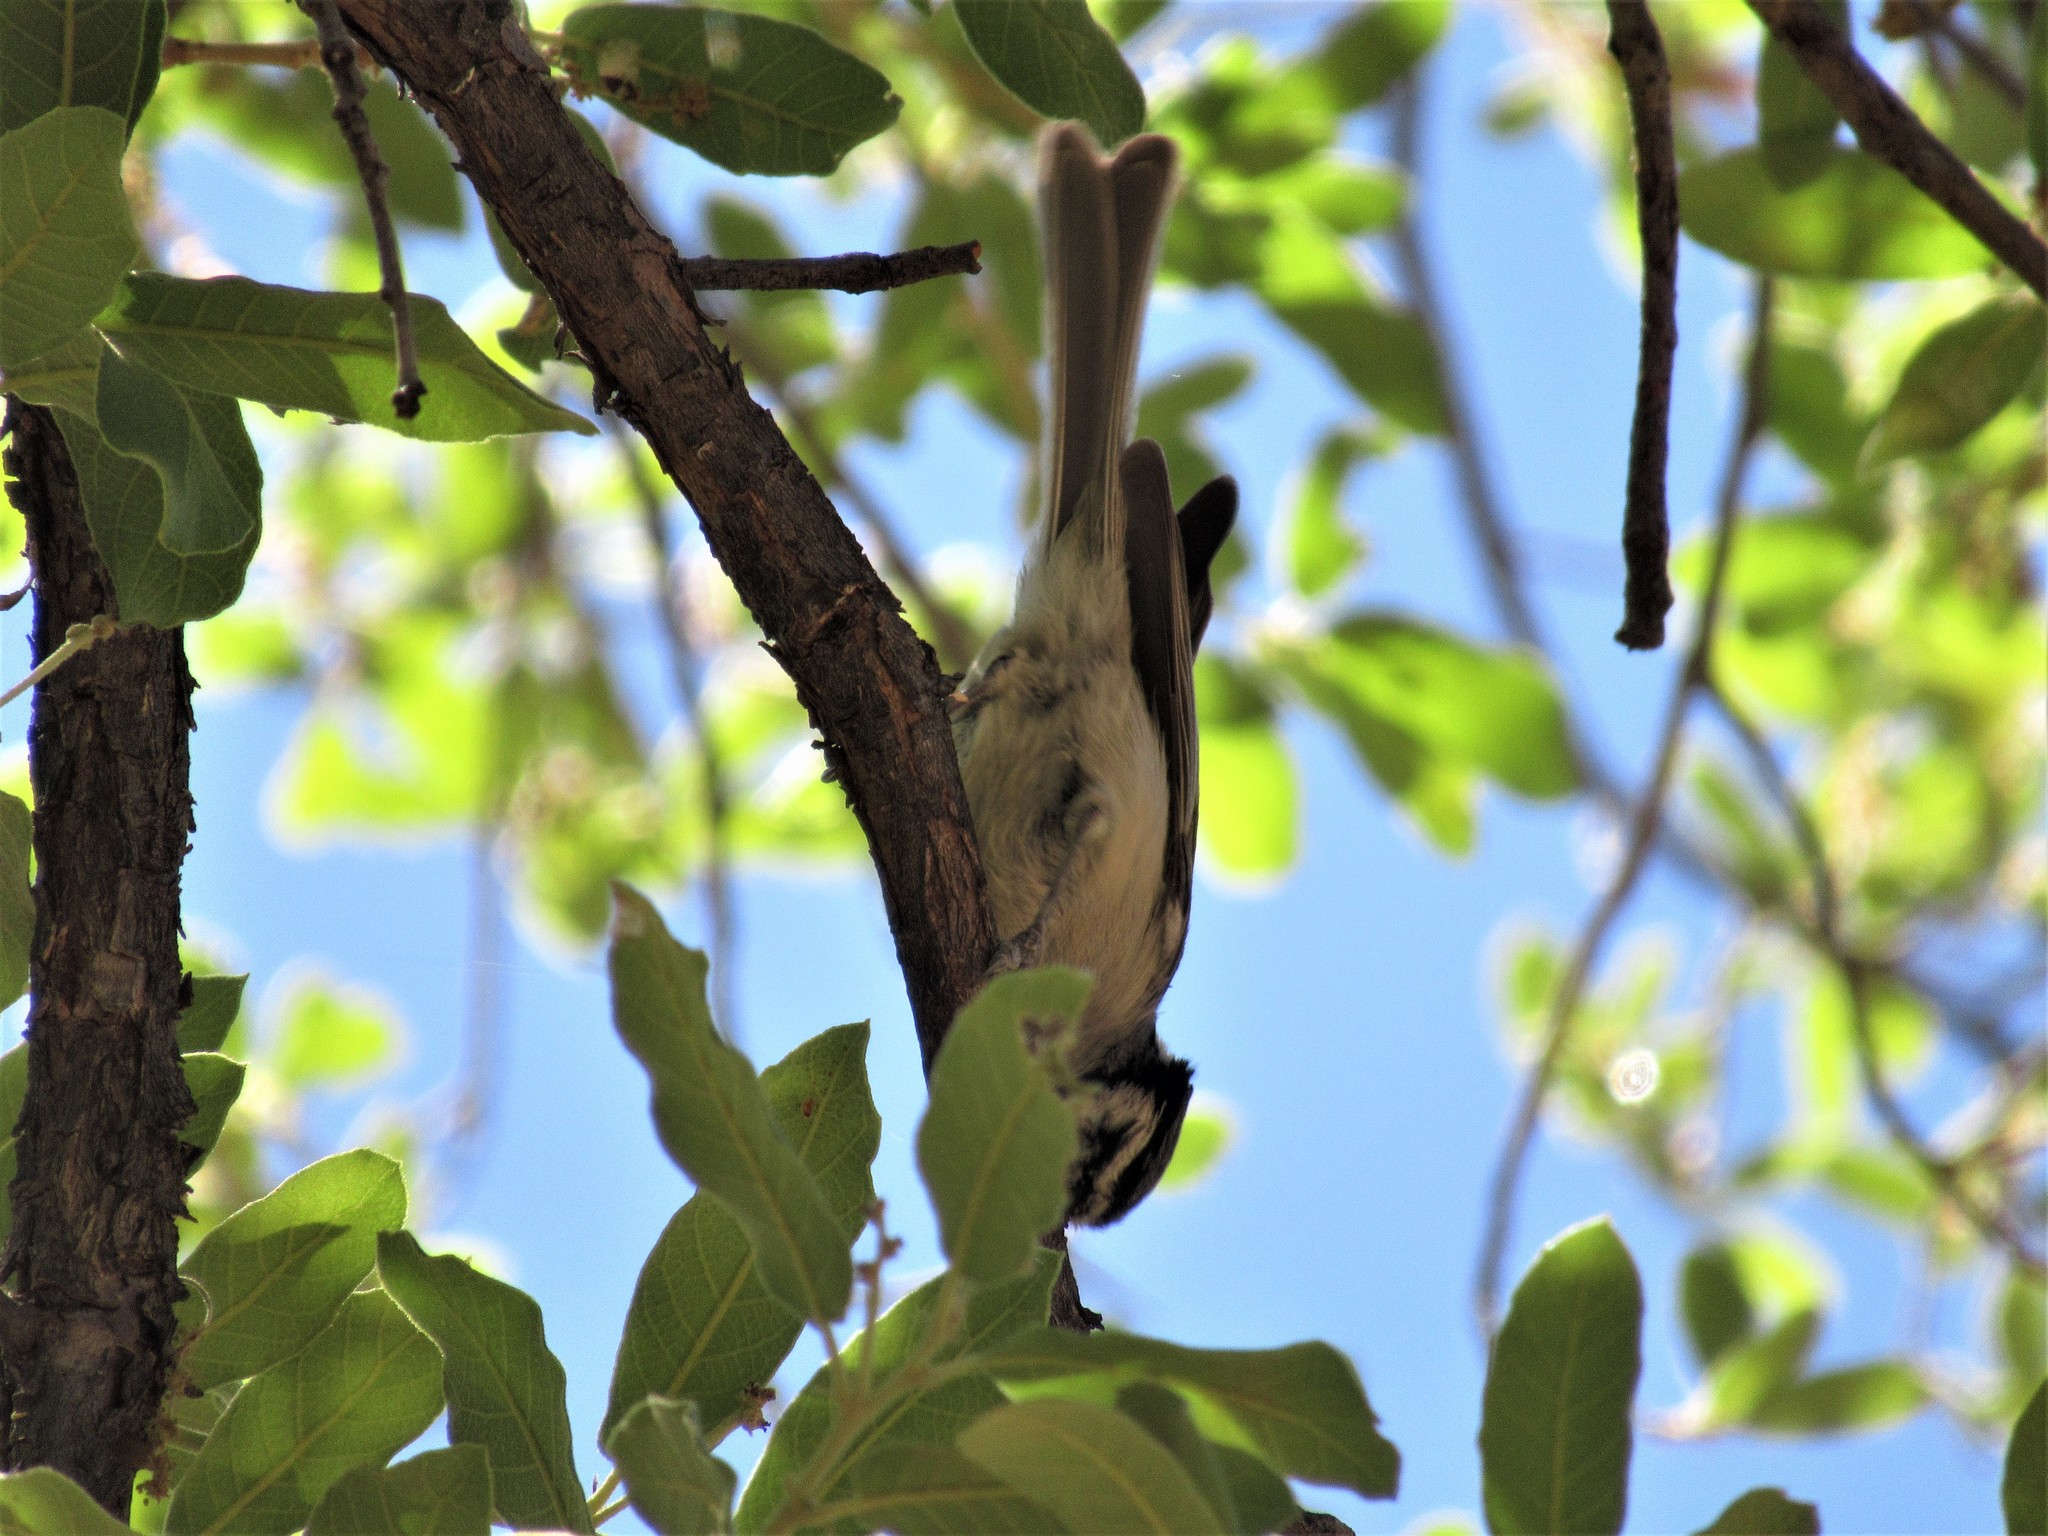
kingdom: Animalia
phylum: Chordata
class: Aves
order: Passeriformes
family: Paridae
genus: Baeolophus
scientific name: Baeolophus wollweberi
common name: Bridled titmouse
